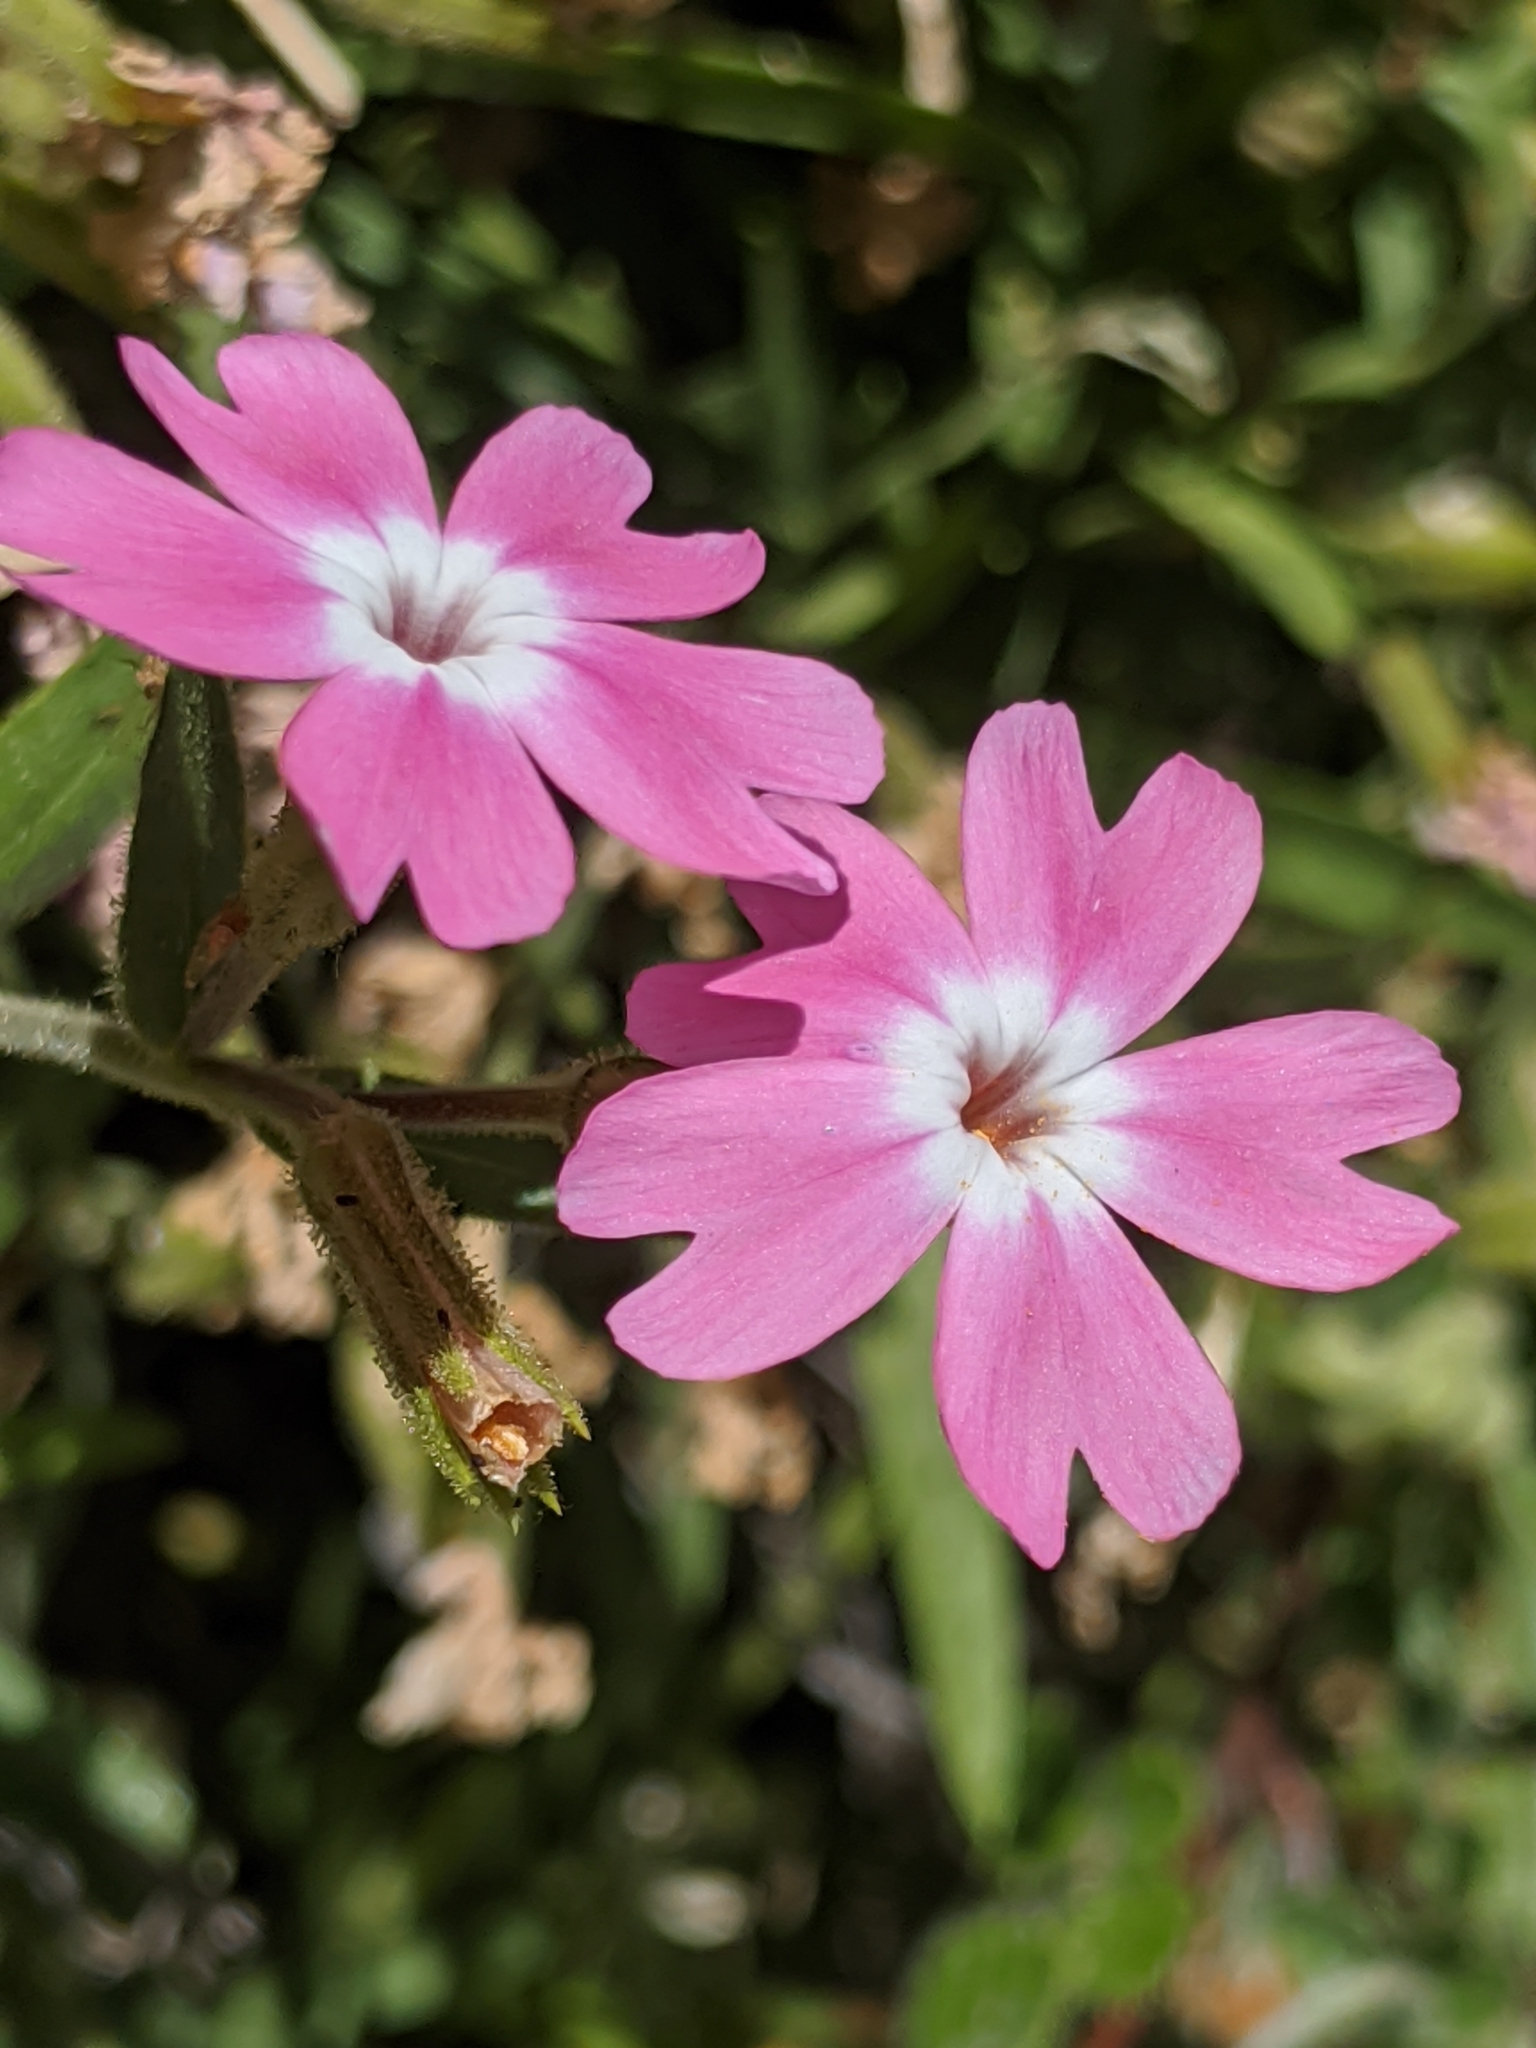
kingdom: Plantae
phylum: Tracheophyta
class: Magnoliopsida
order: Ericales
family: Polemoniaceae
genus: Phlox
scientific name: Phlox speciosa
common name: Bush phlox
